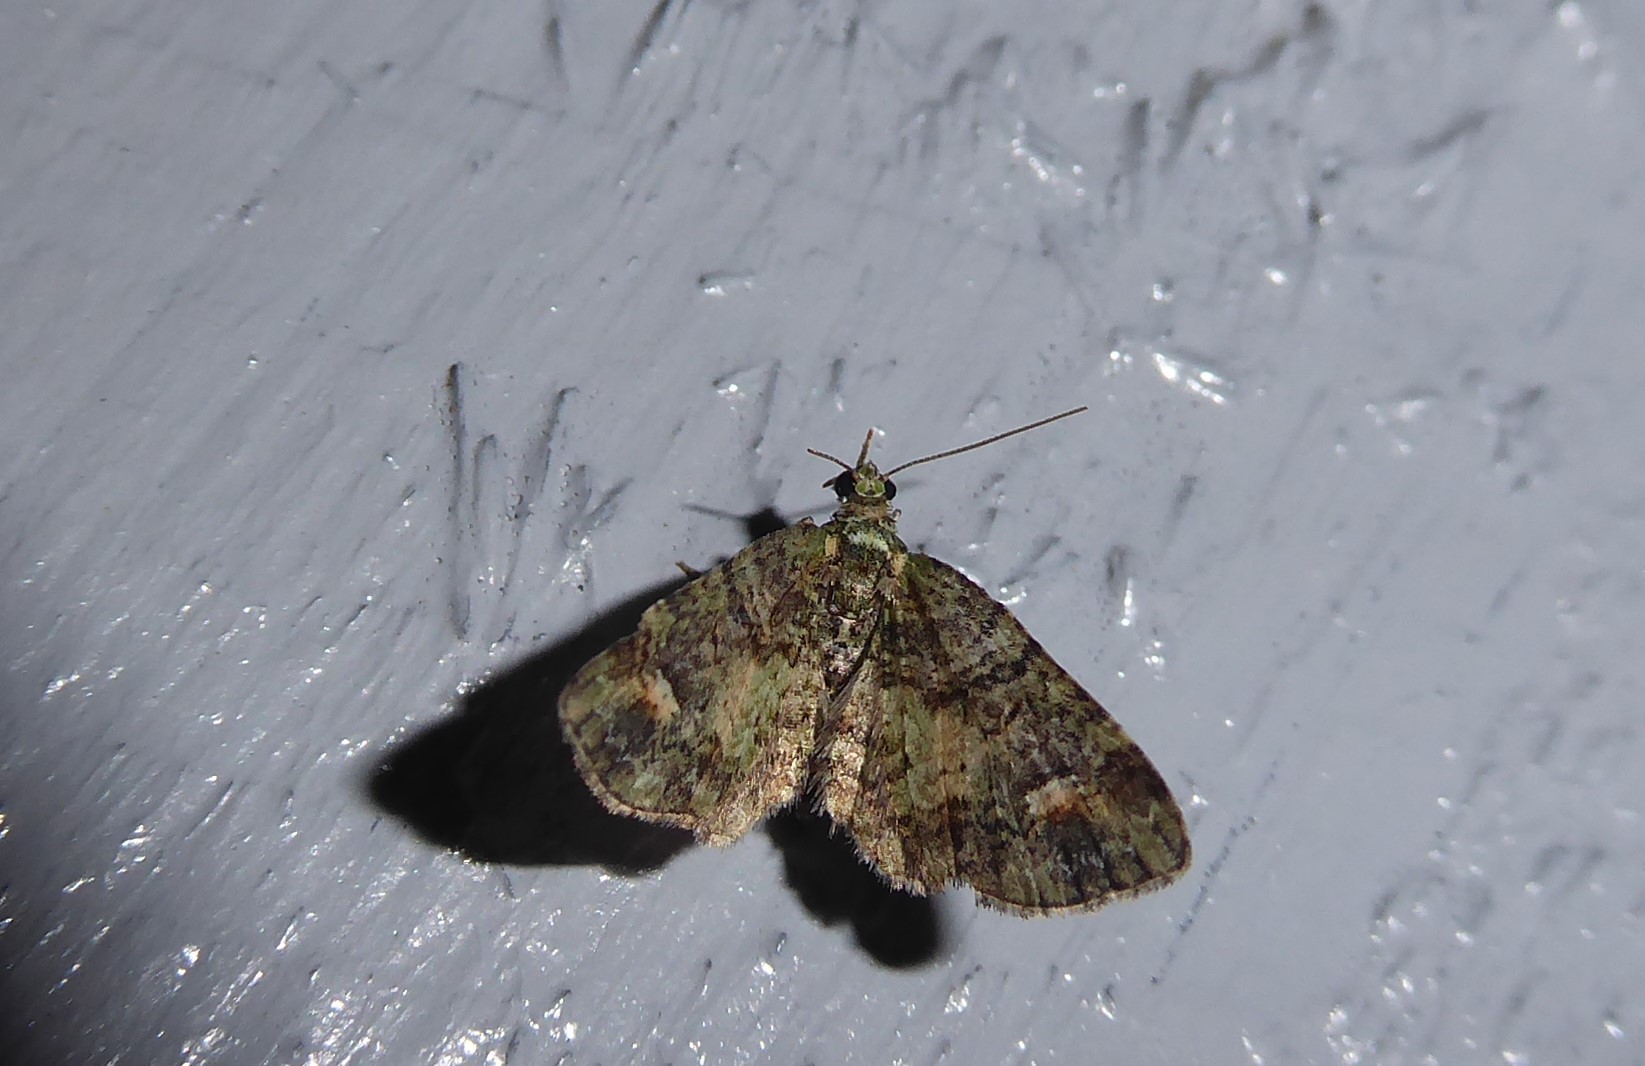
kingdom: Animalia
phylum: Arthropoda
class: Insecta
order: Lepidoptera
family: Geometridae
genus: Idaea
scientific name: Idaea mutanda
